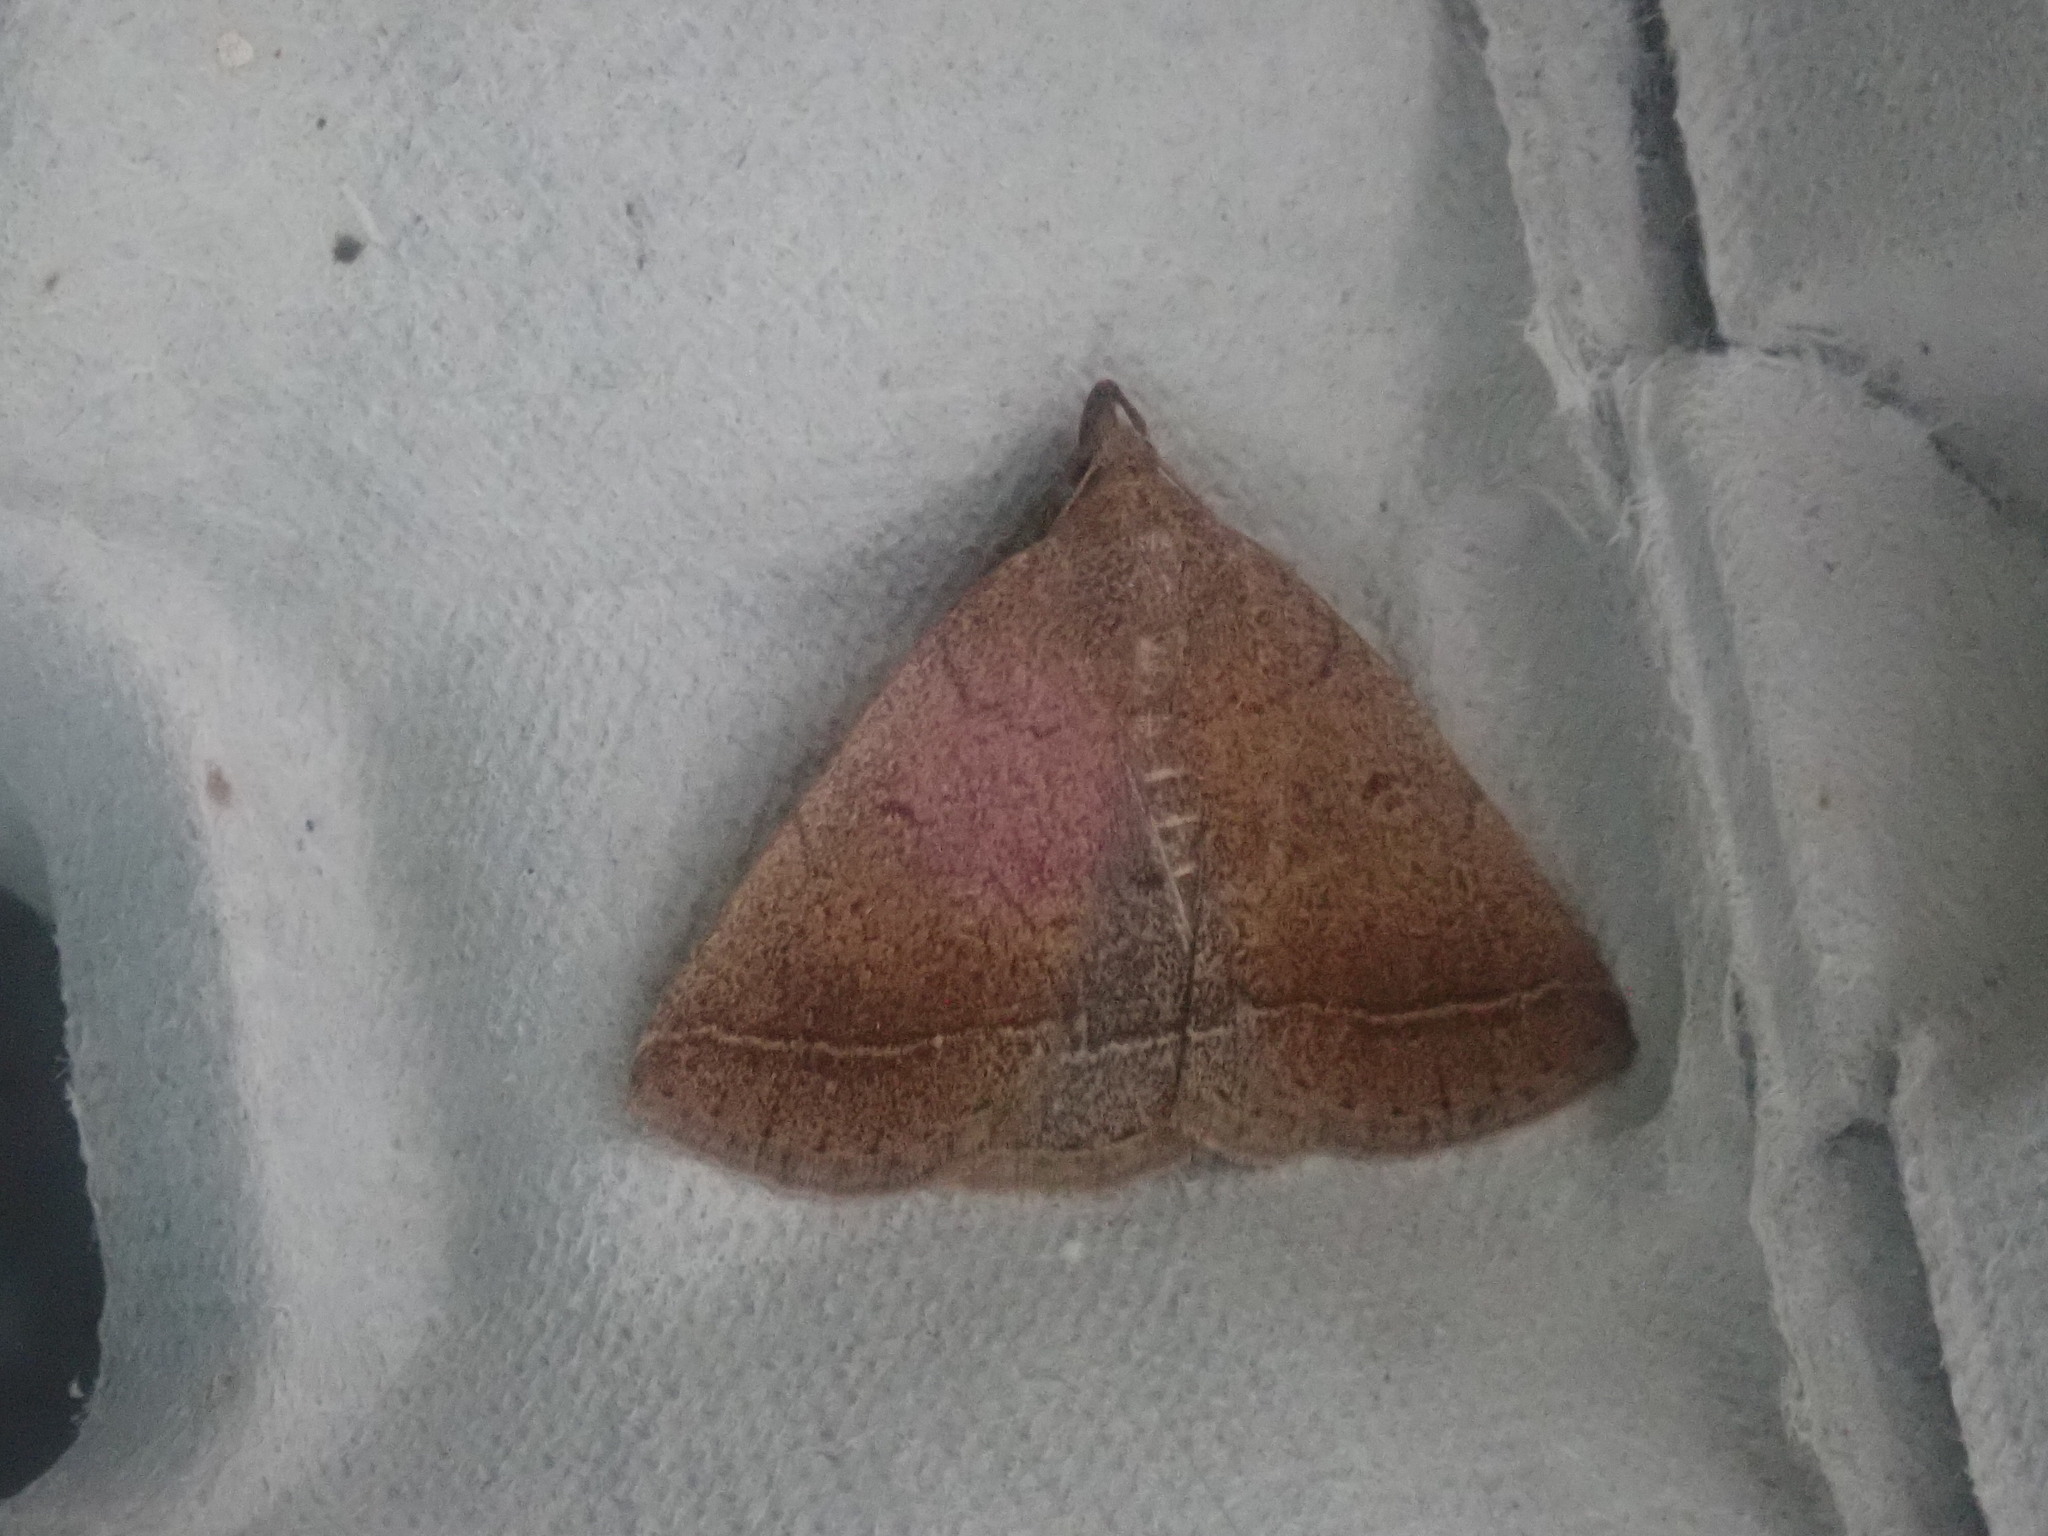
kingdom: Animalia
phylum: Arthropoda
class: Insecta
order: Lepidoptera
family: Erebidae
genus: Zanclognatha
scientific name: Zanclognatha jacchusalis
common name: Yellowish zanclognatha
